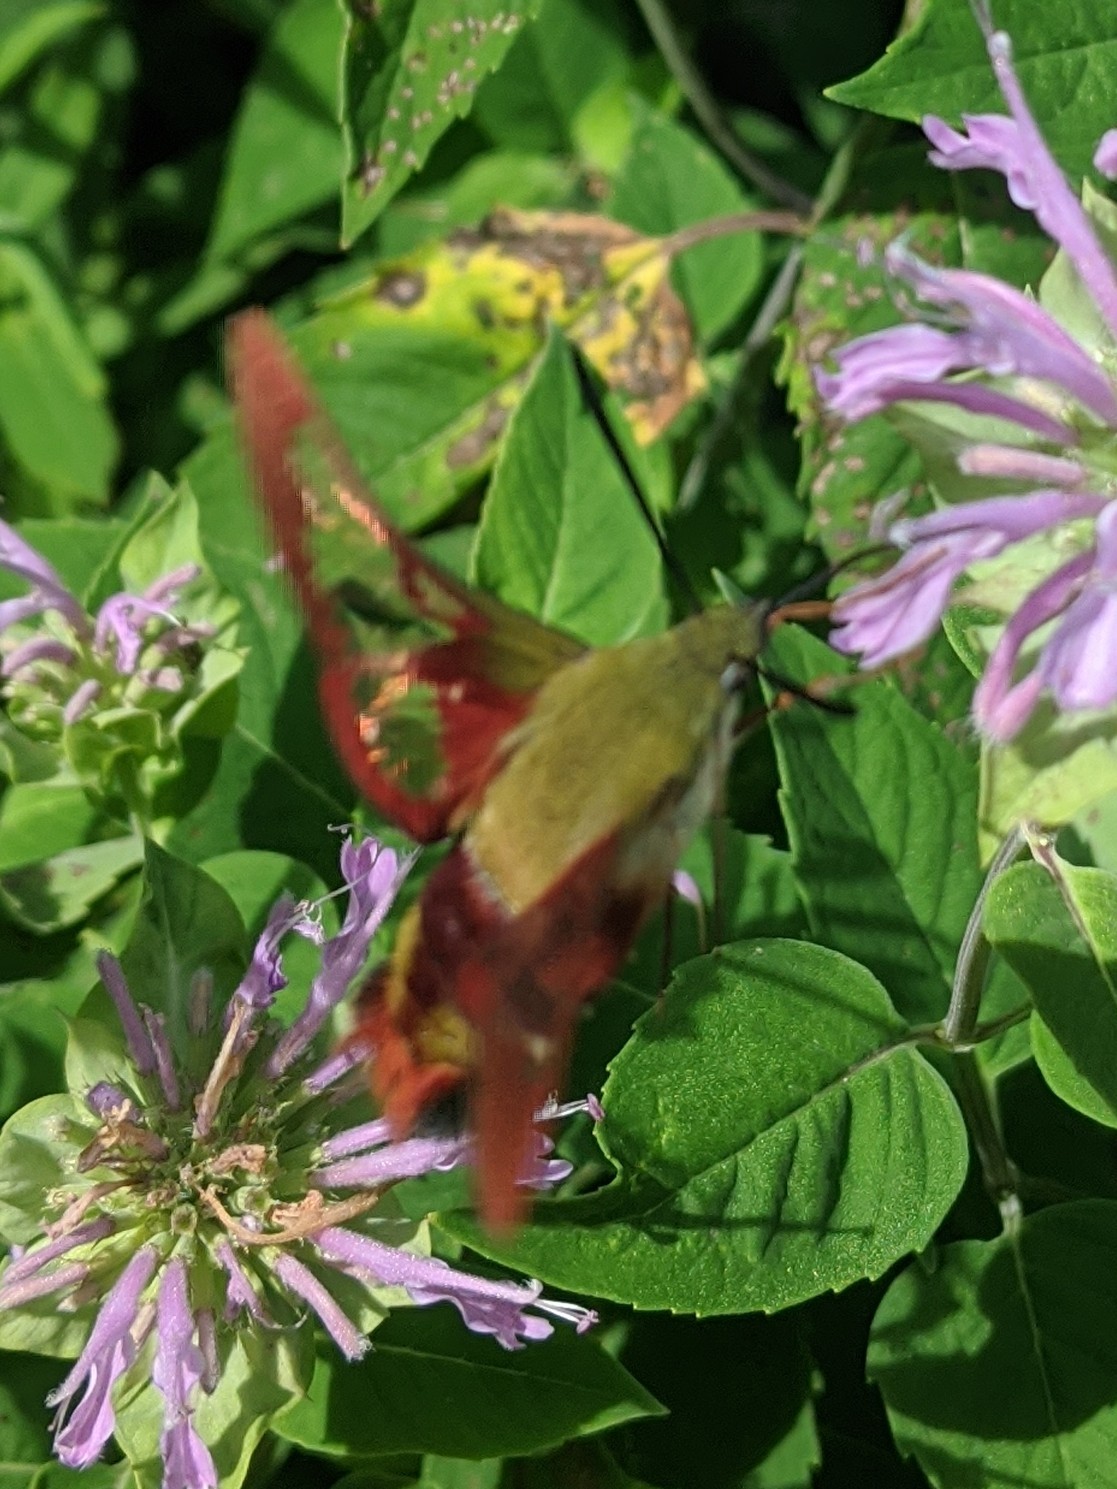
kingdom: Animalia
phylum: Arthropoda
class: Insecta
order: Lepidoptera
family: Sphingidae
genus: Hemaris
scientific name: Hemaris thysbe
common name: Common clear-wing
